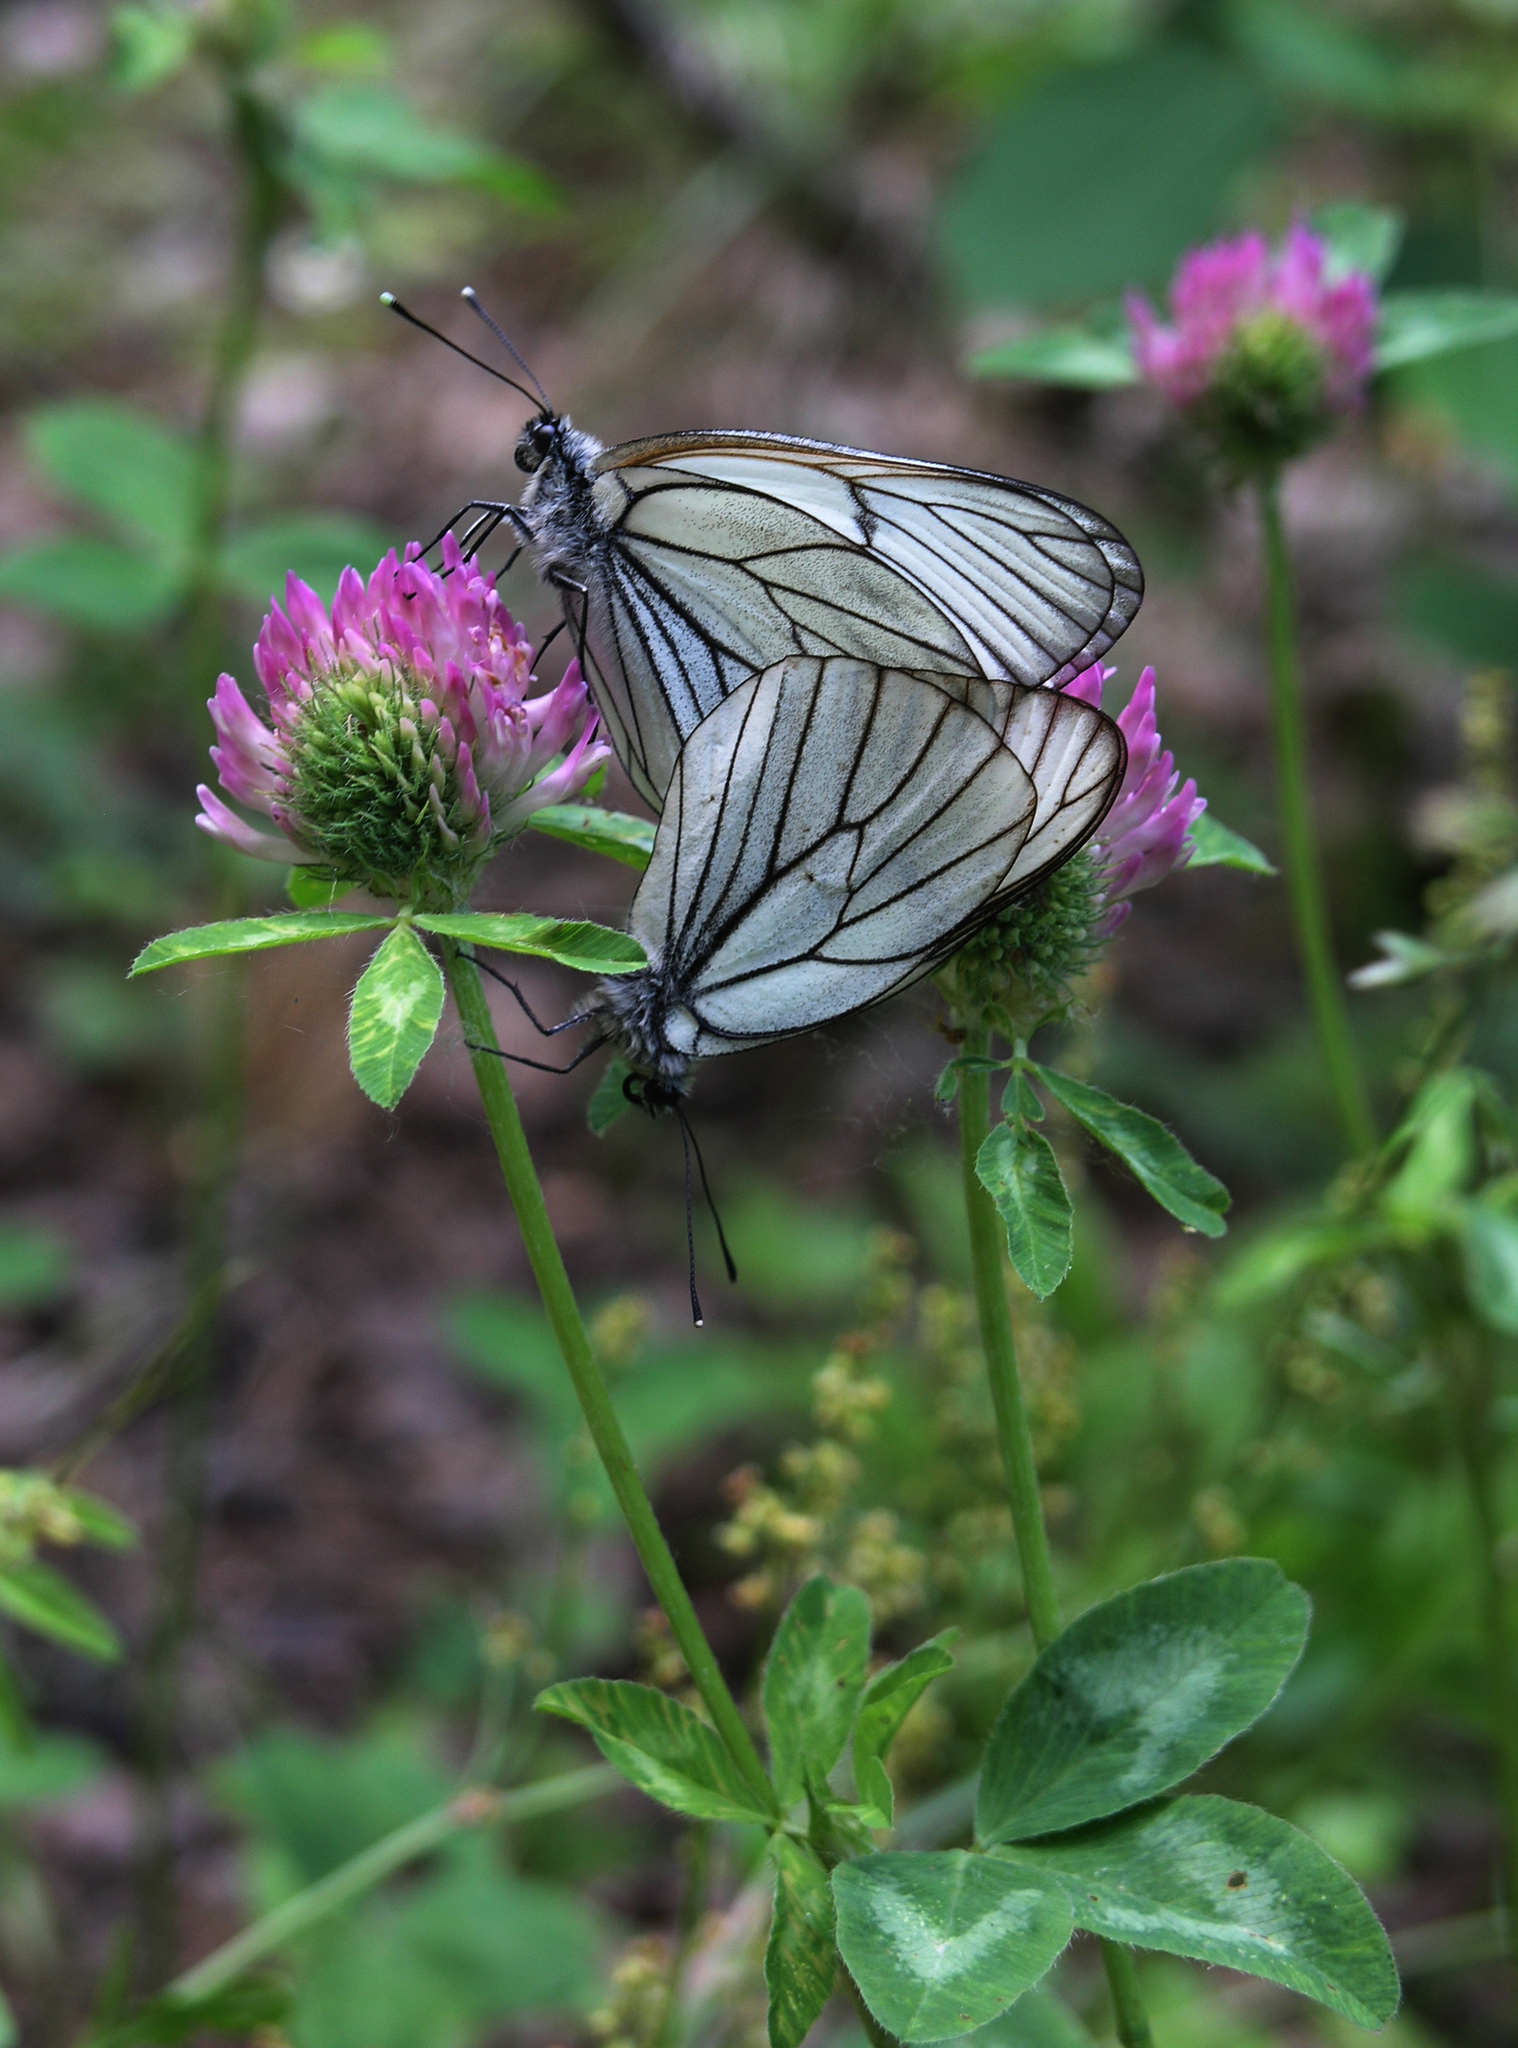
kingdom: Animalia
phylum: Arthropoda
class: Insecta
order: Lepidoptera
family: Pieridae
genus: Aporia
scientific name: Aporia crataegi
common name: Black-veined white
